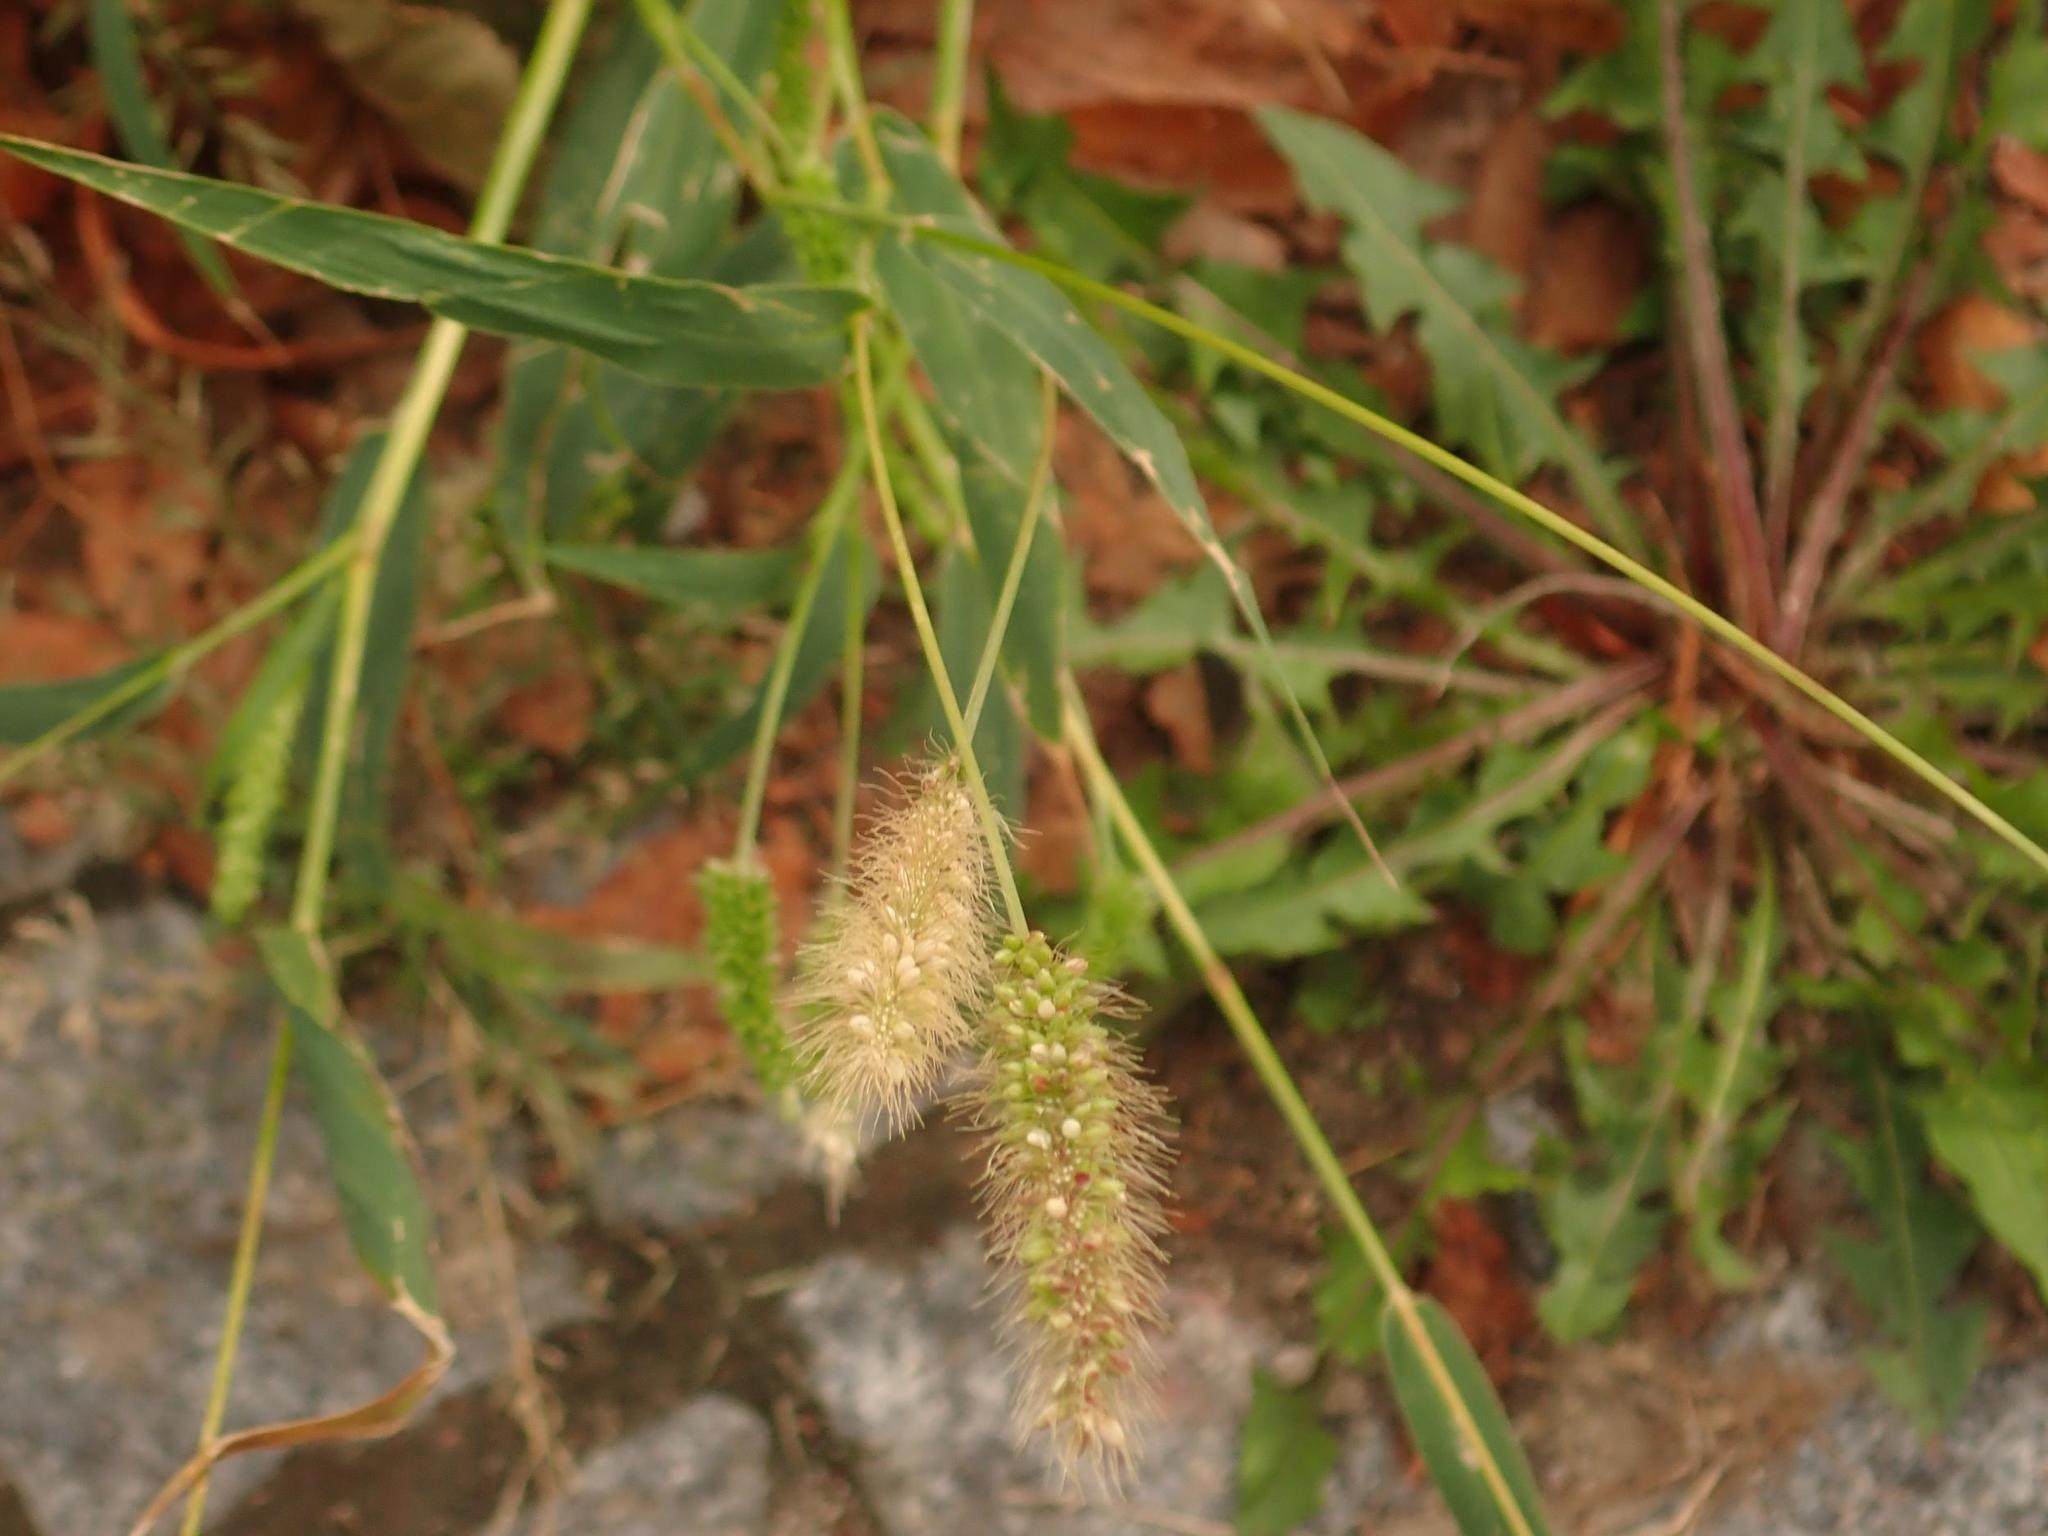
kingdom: Plantae
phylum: Tracheophyta
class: Liliopsida
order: Poales
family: Poaceae
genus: Setaria
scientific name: Setaria viridis
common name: Green bristlegrass
